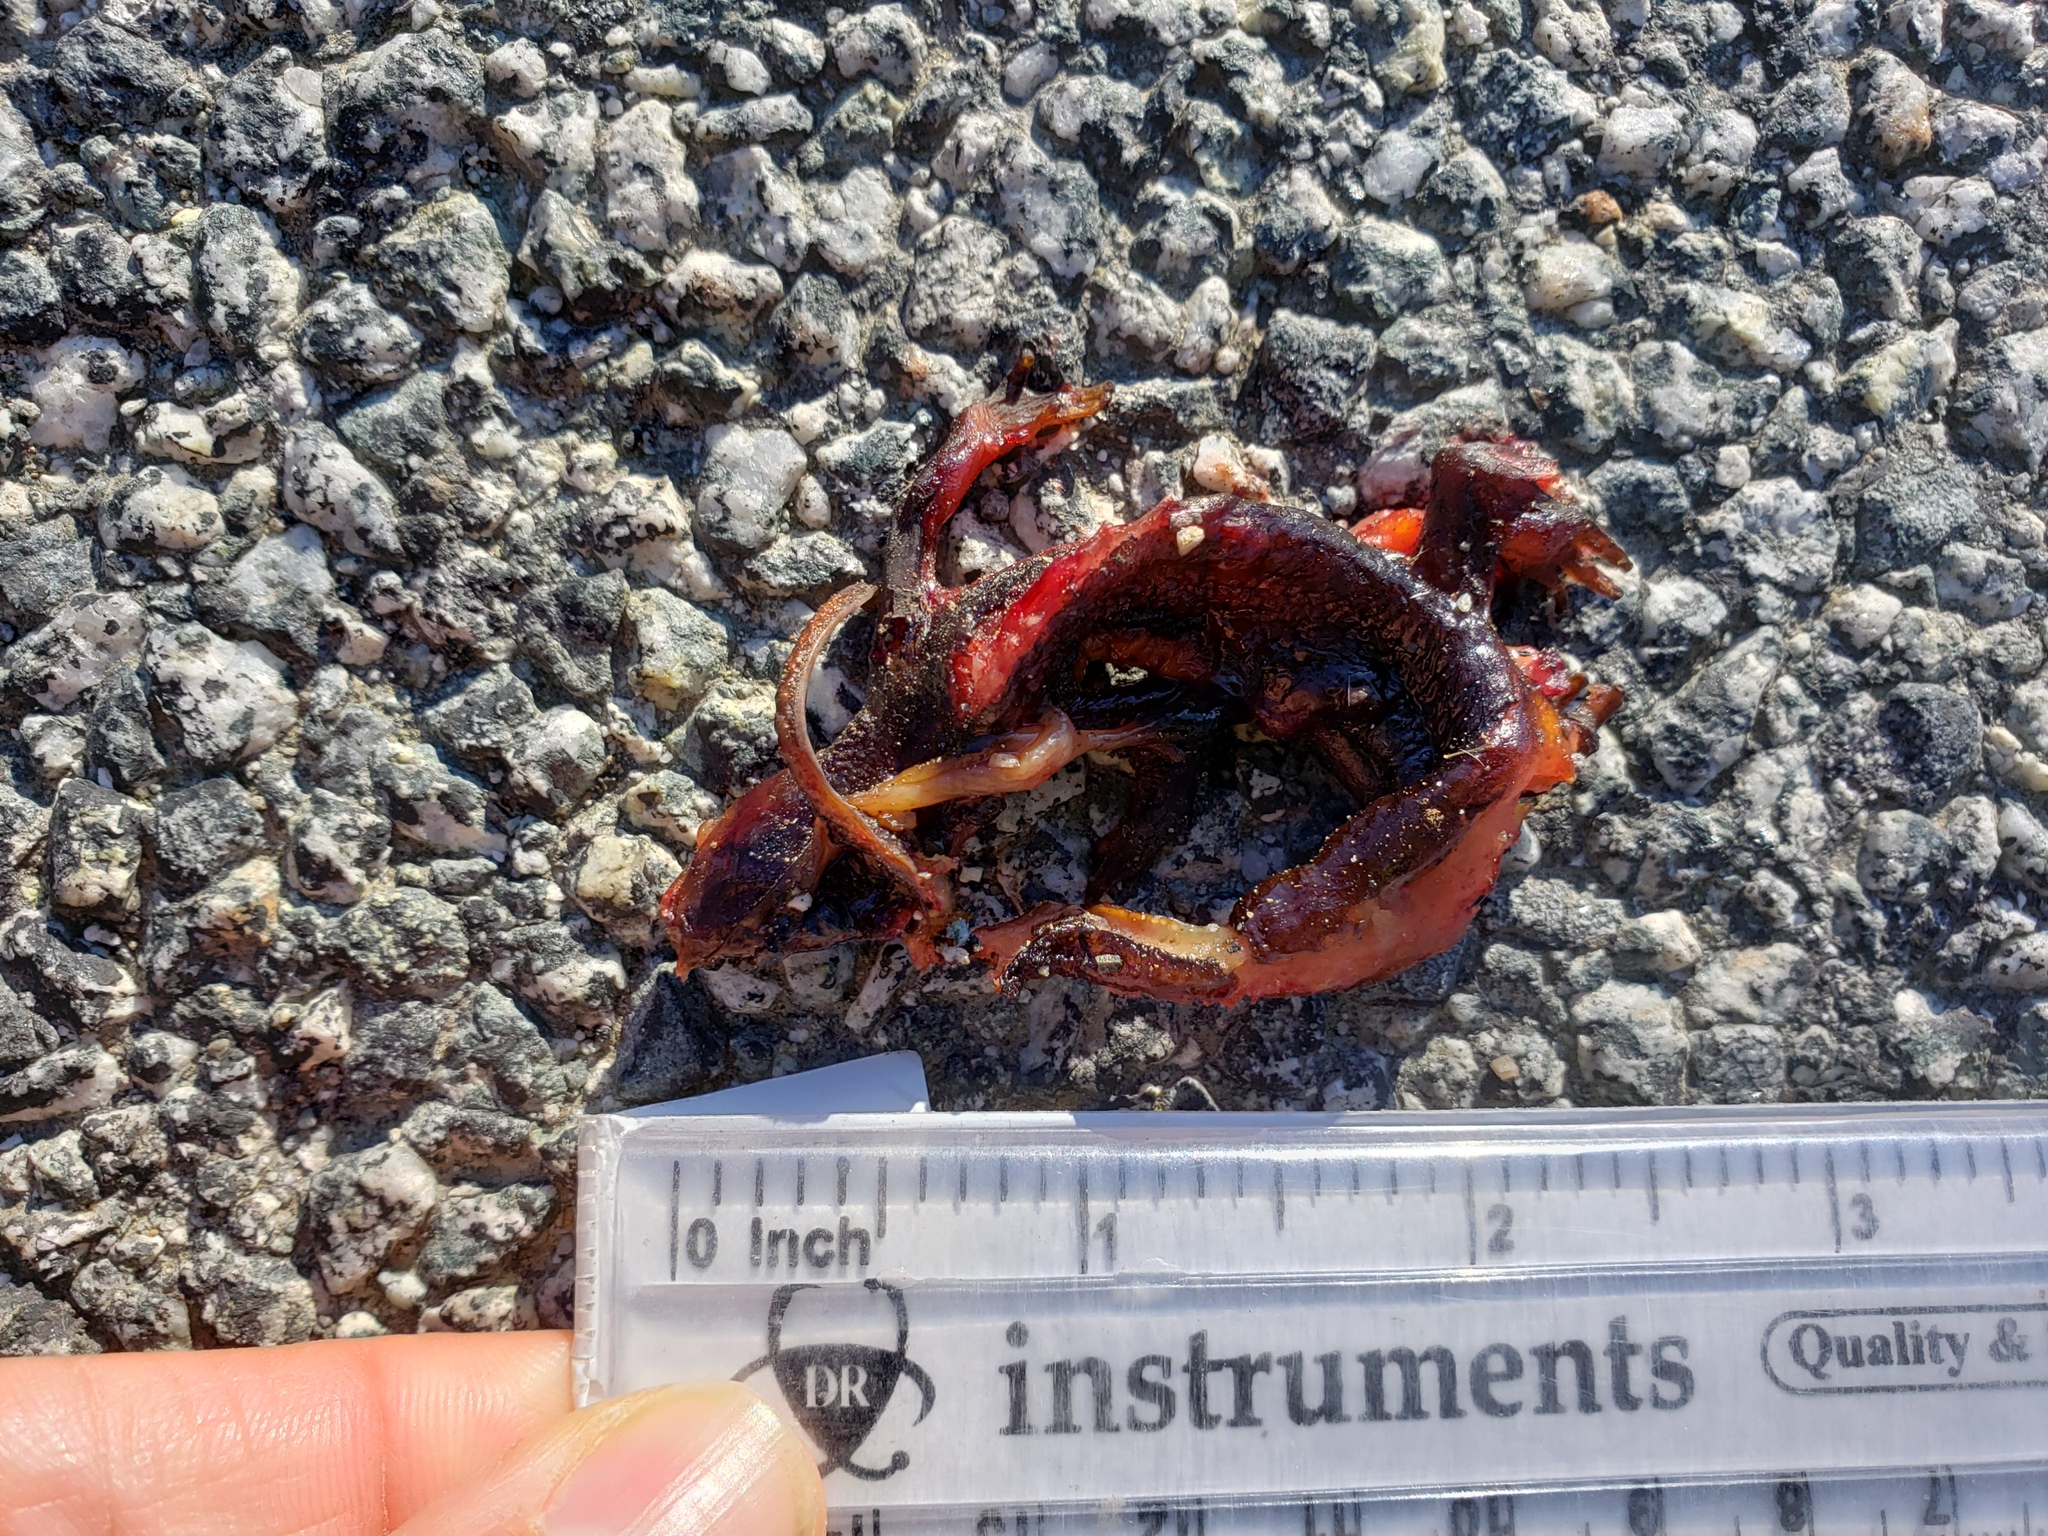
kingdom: Animalia
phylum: Chordata
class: Amphibia
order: Caudata
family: Salamandridae
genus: Taricha
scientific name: Taricha
